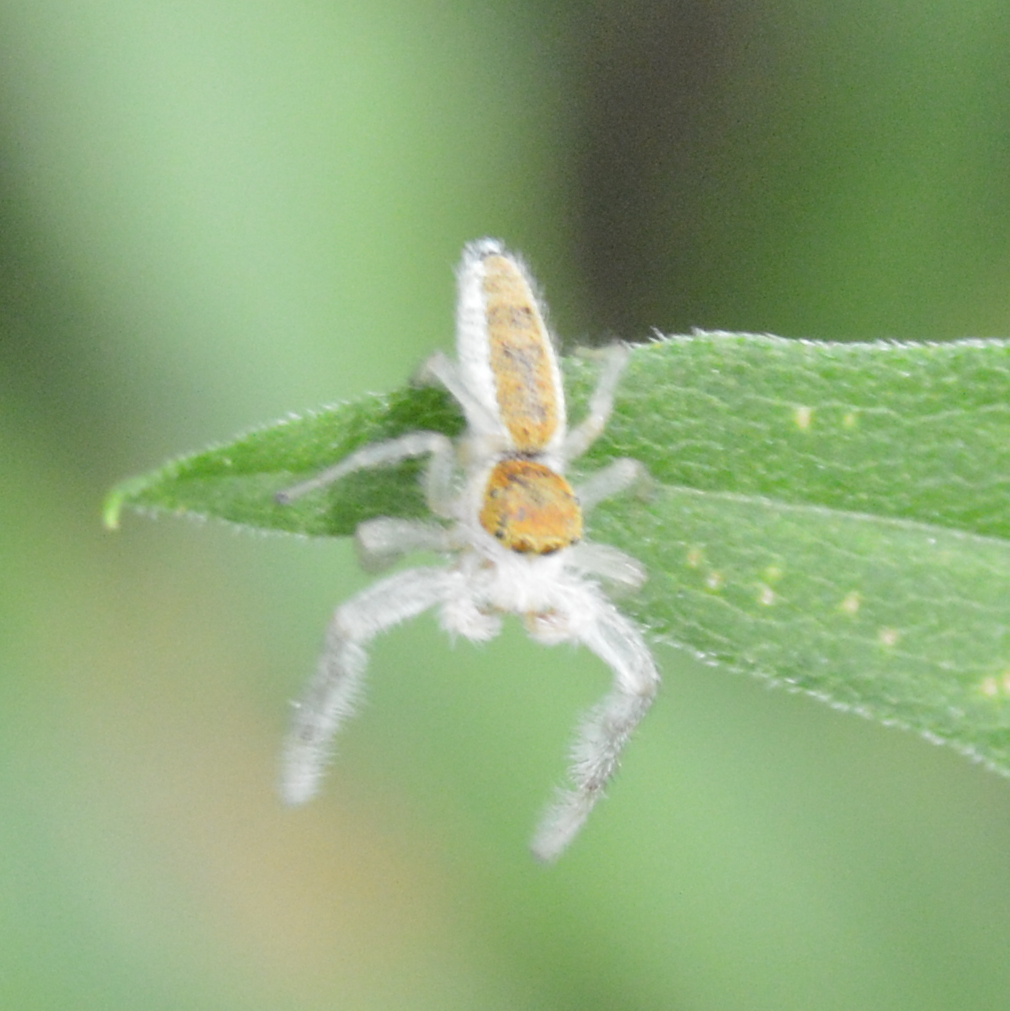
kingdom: Animalia
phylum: Arthropoda
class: Arachnida
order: Araneae
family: Salticidae
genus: Hentzia
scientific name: Hentzia mitrata
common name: White-jawed jumping spider
